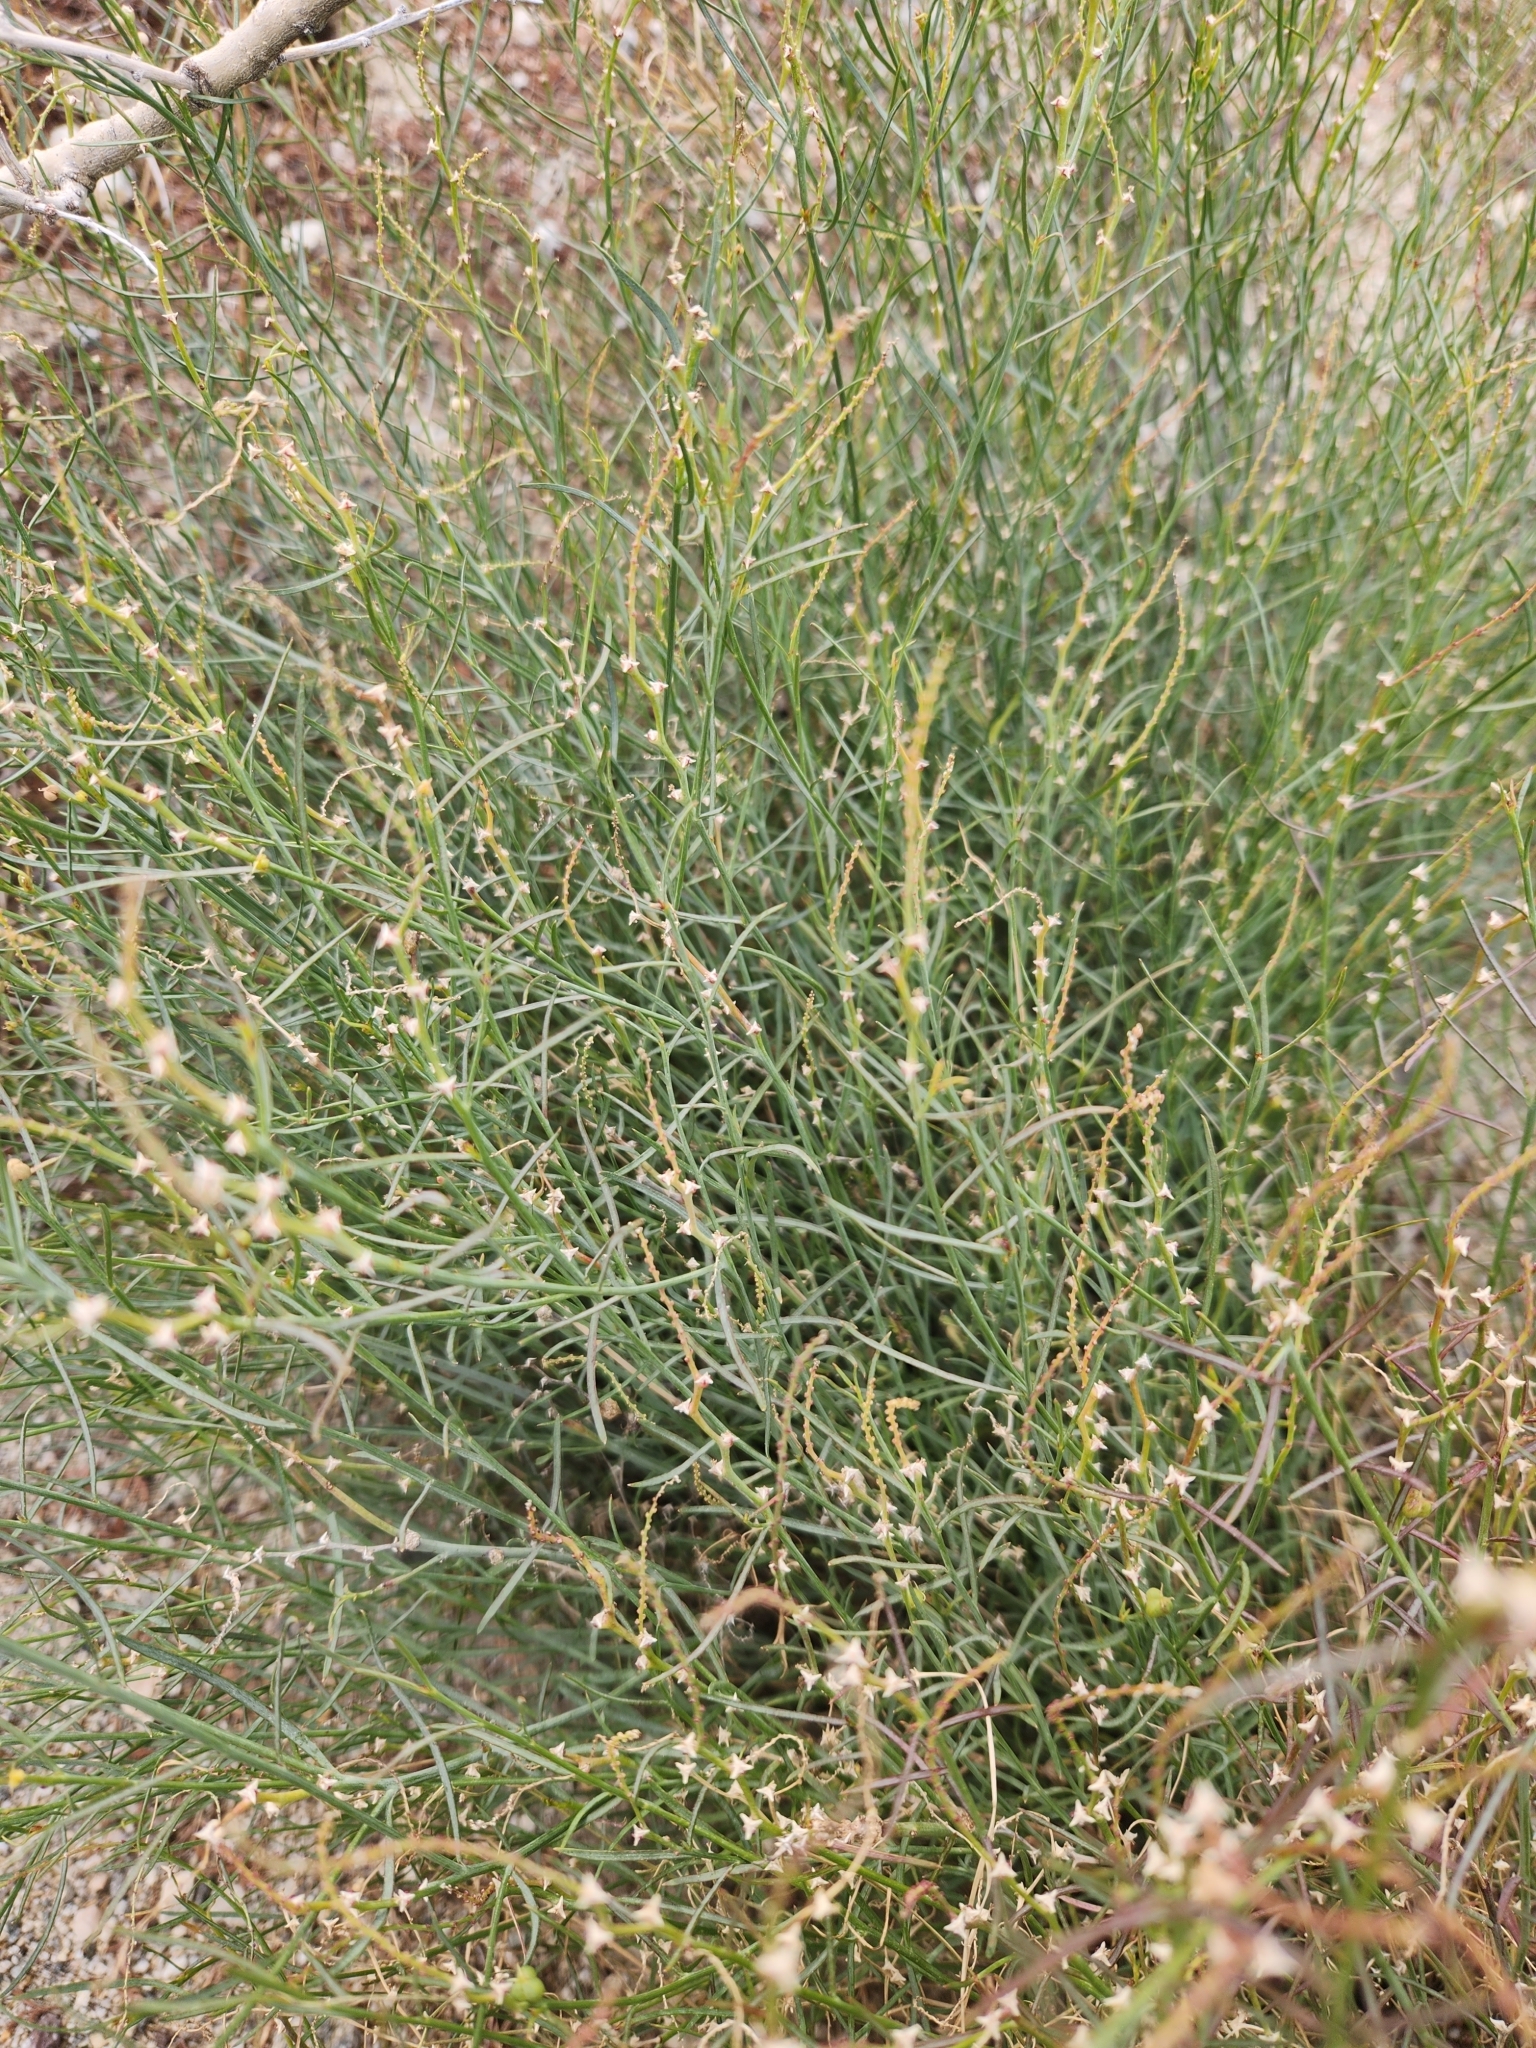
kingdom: Plantae
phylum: Tracheophyta
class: Magnoliopsida
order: Malpighiales
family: Euphorbiaceae
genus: Stillingia
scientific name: Stillingia linearifolia
